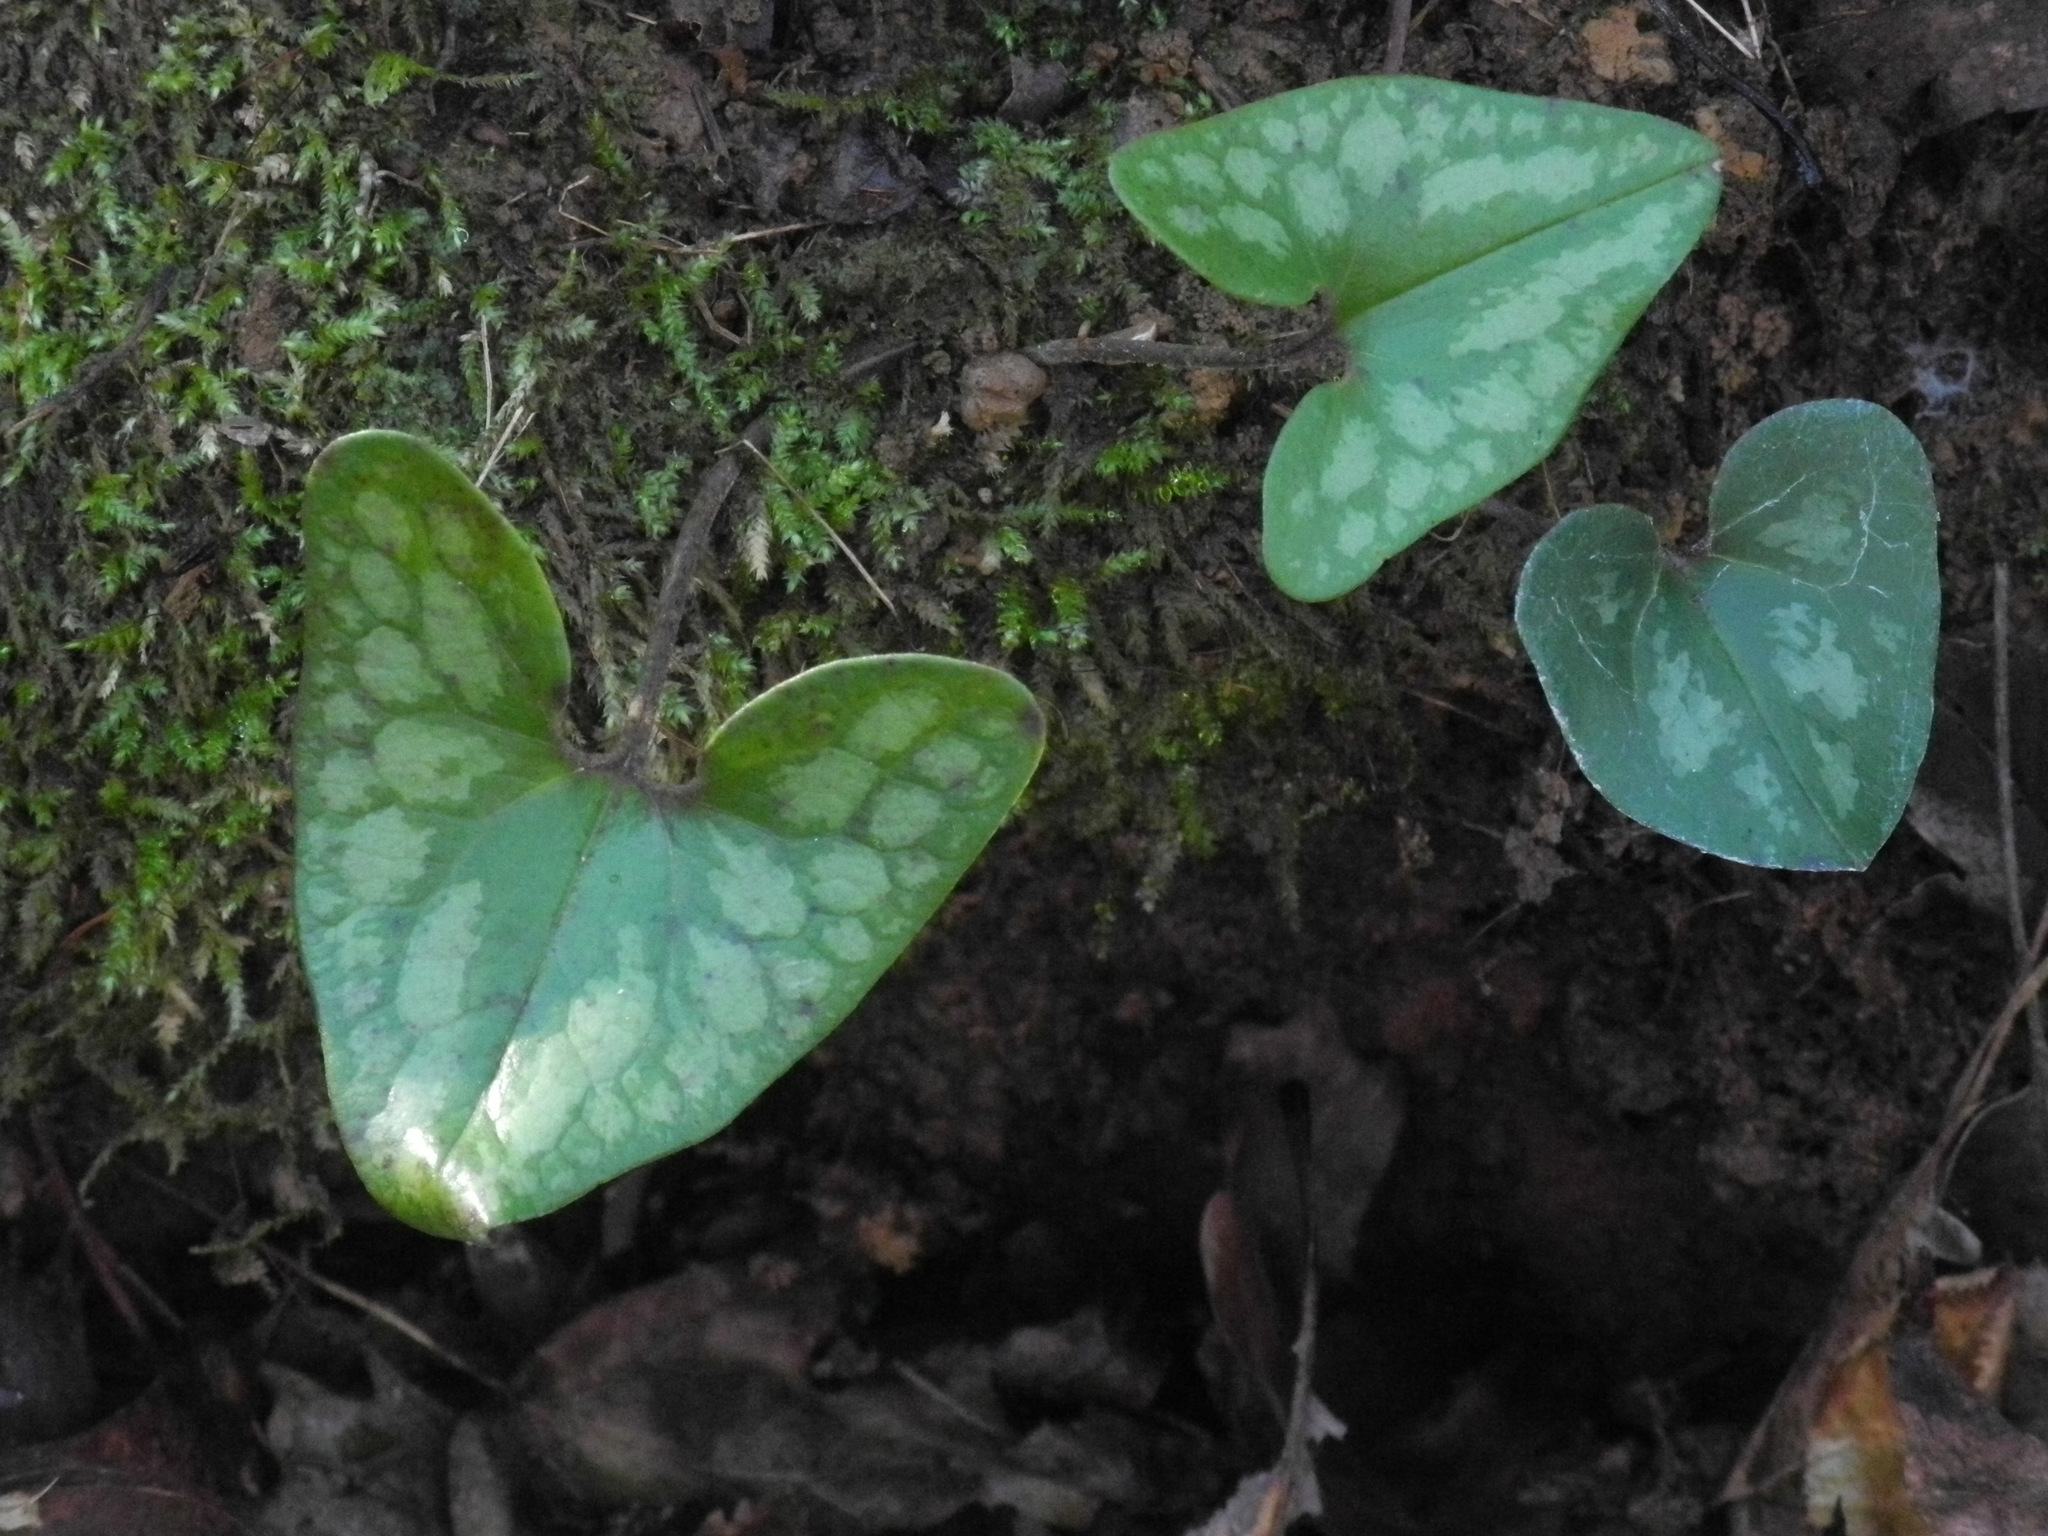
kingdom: Plantae
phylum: Tracheophyta
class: Magnoliopsida
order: Piperales
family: Aristolochiaceae
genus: Hexastylis
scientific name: Hexastylis arifolia
